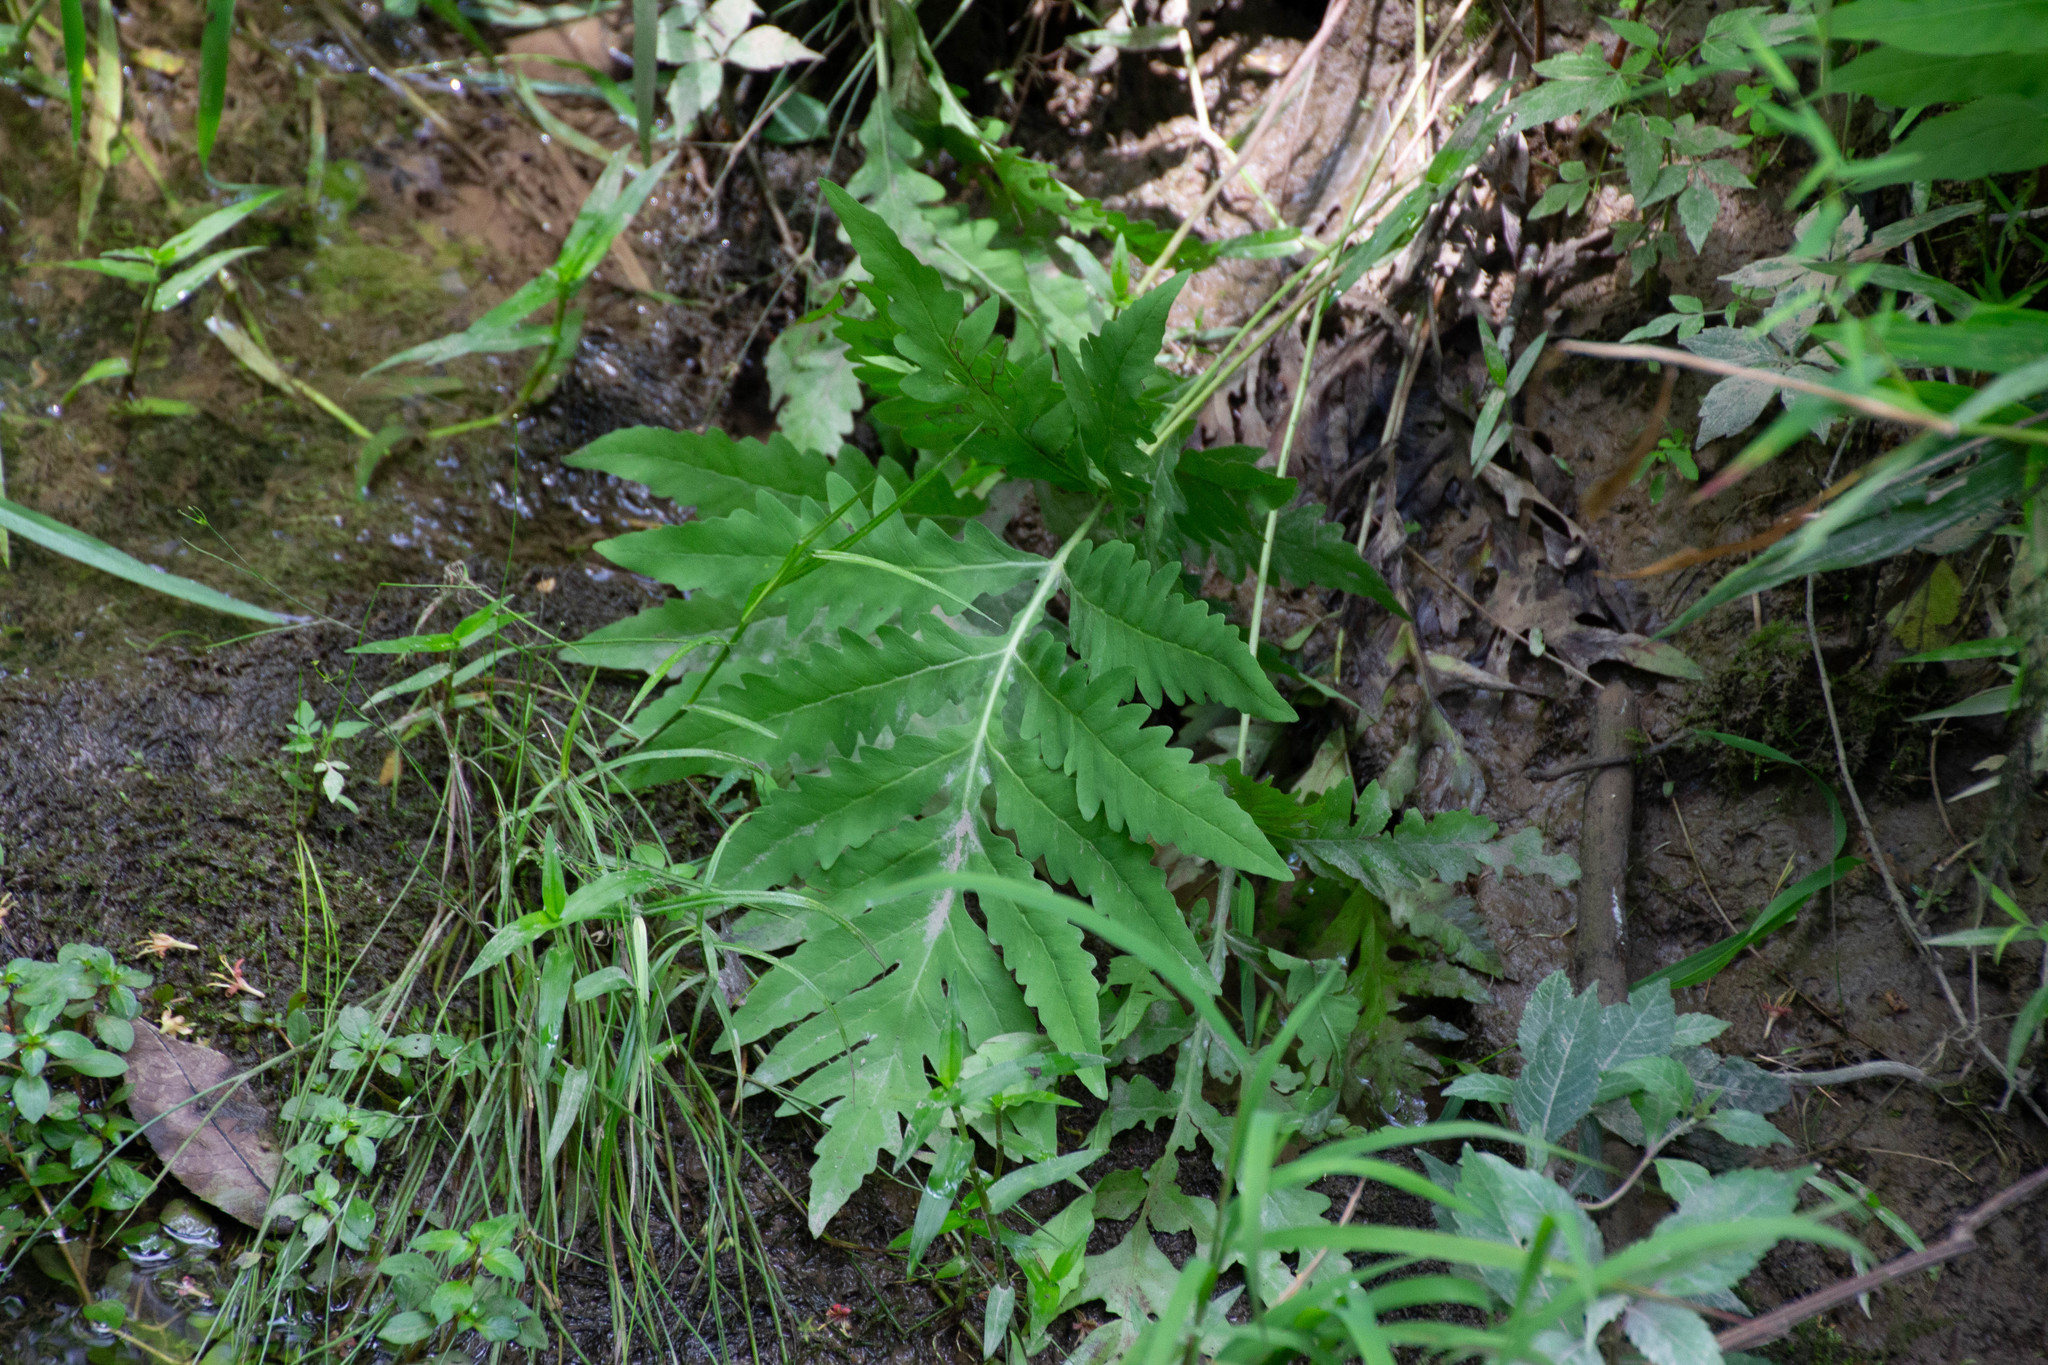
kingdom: Plantae
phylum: Tracheophyta
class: Polypodiopsida
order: Polypodiales
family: Onocleaceae
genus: Onoclea
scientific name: Onoclea sensibilis
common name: Sensitive fern
